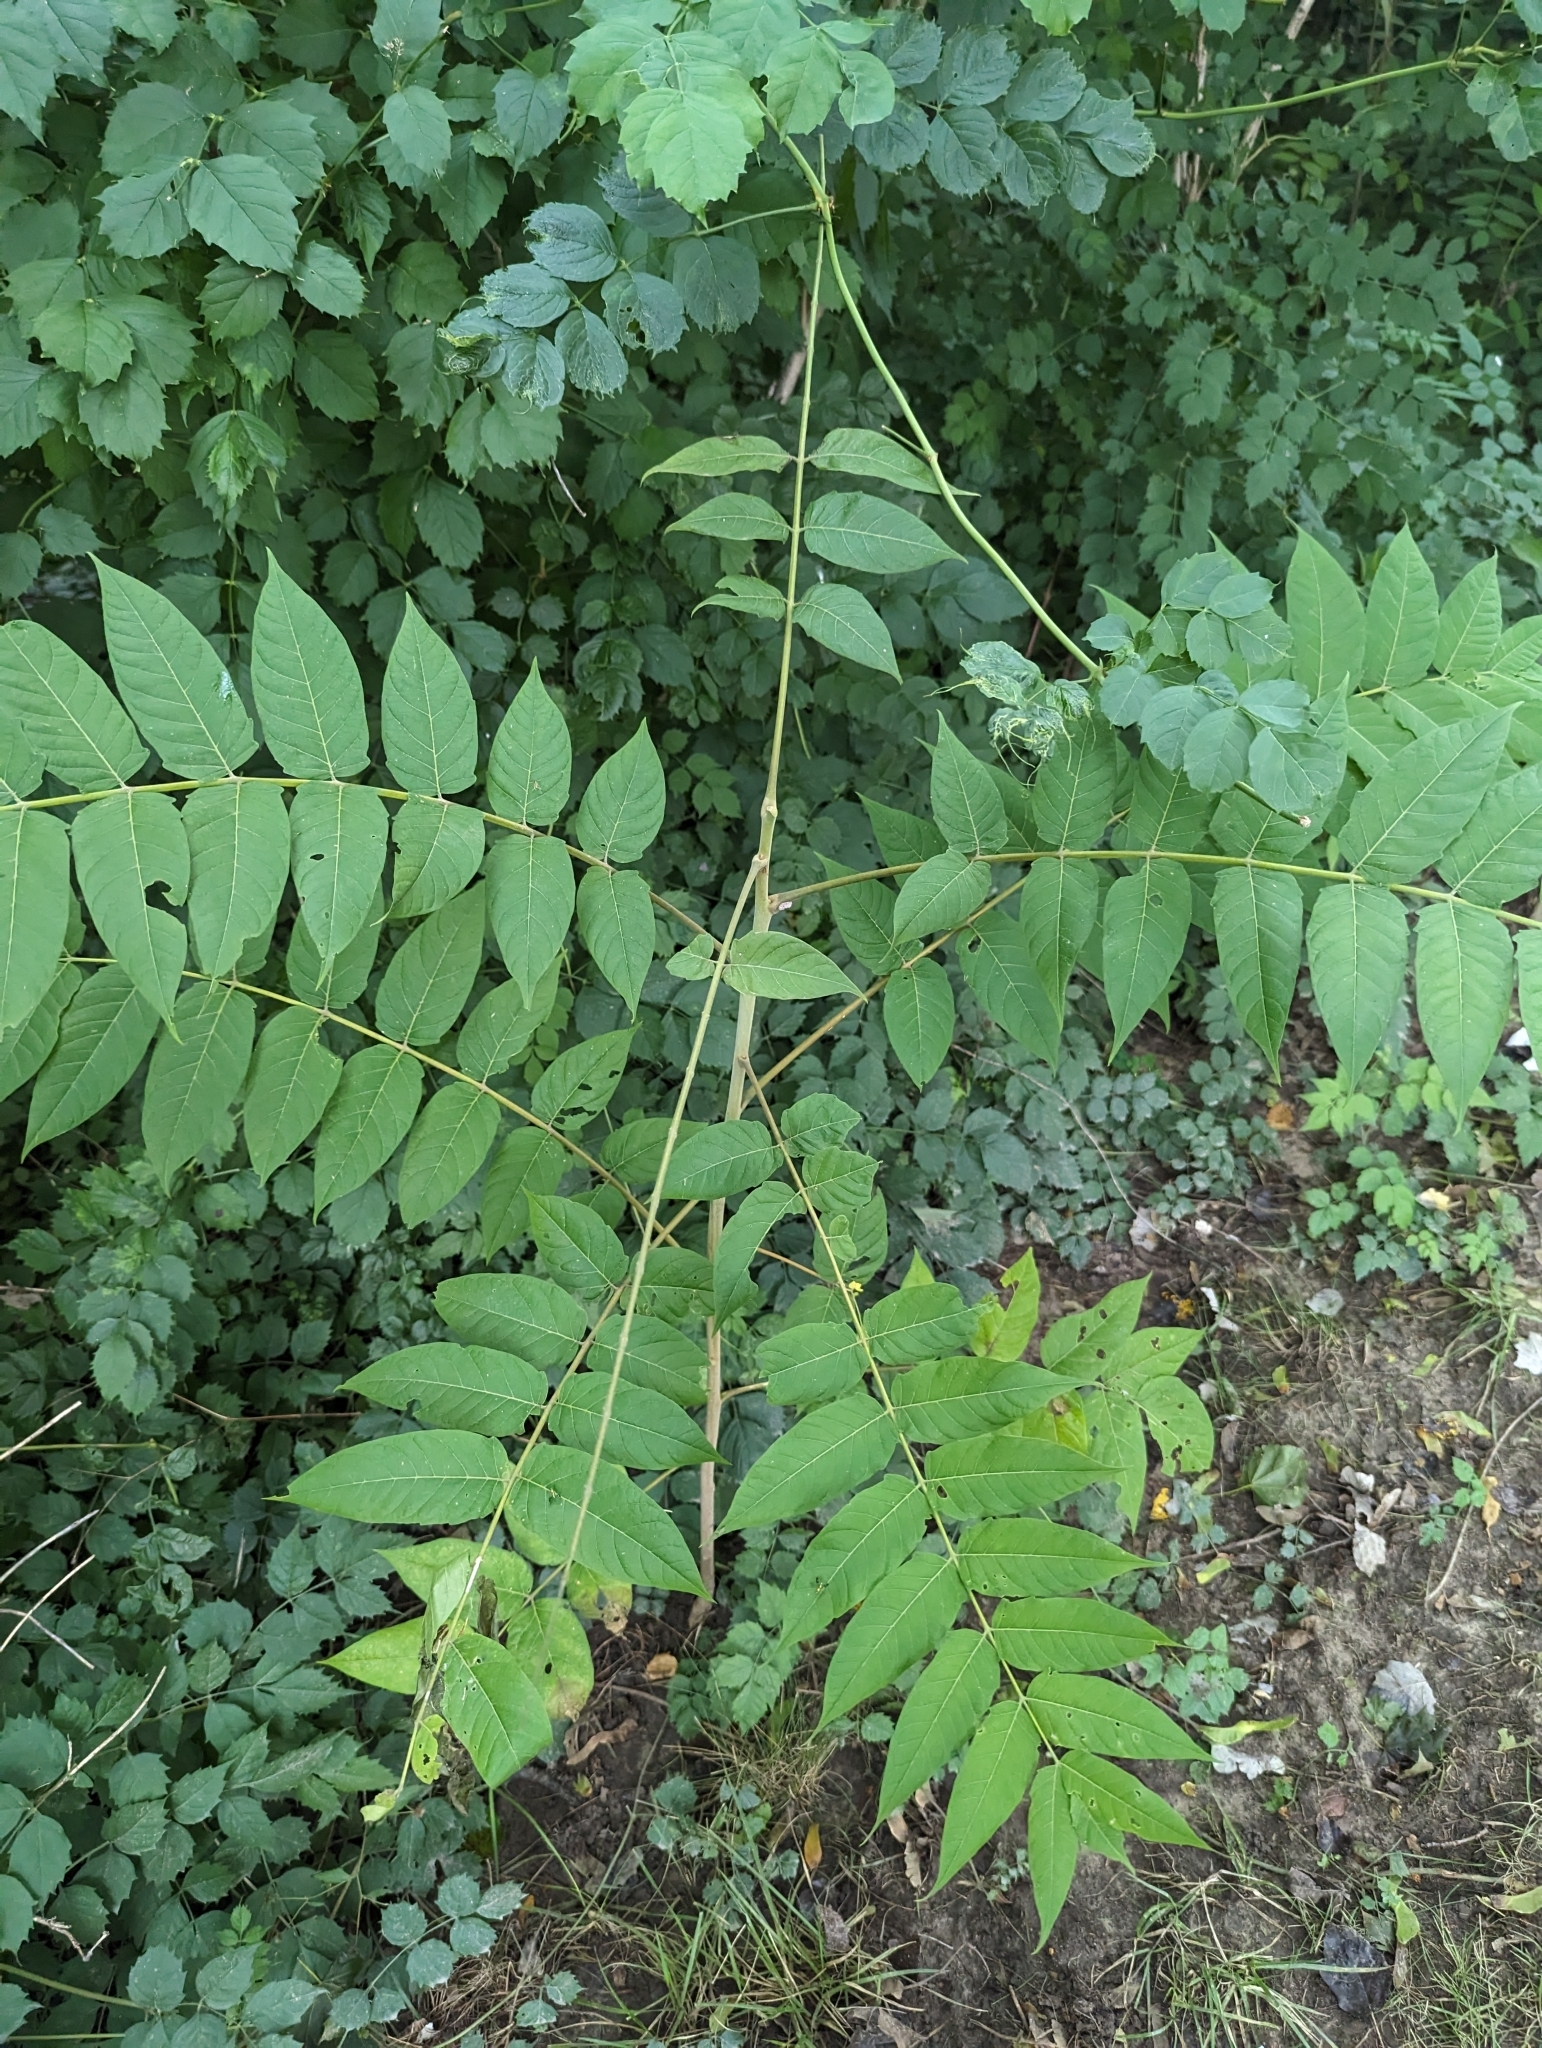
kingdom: Plantae
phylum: Tracheophyta
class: Magnoliopsida
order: Sapindales
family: Simaroubaceae
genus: Ailanthus
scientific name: Ailanthus altissima
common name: Tree-of-heaven
